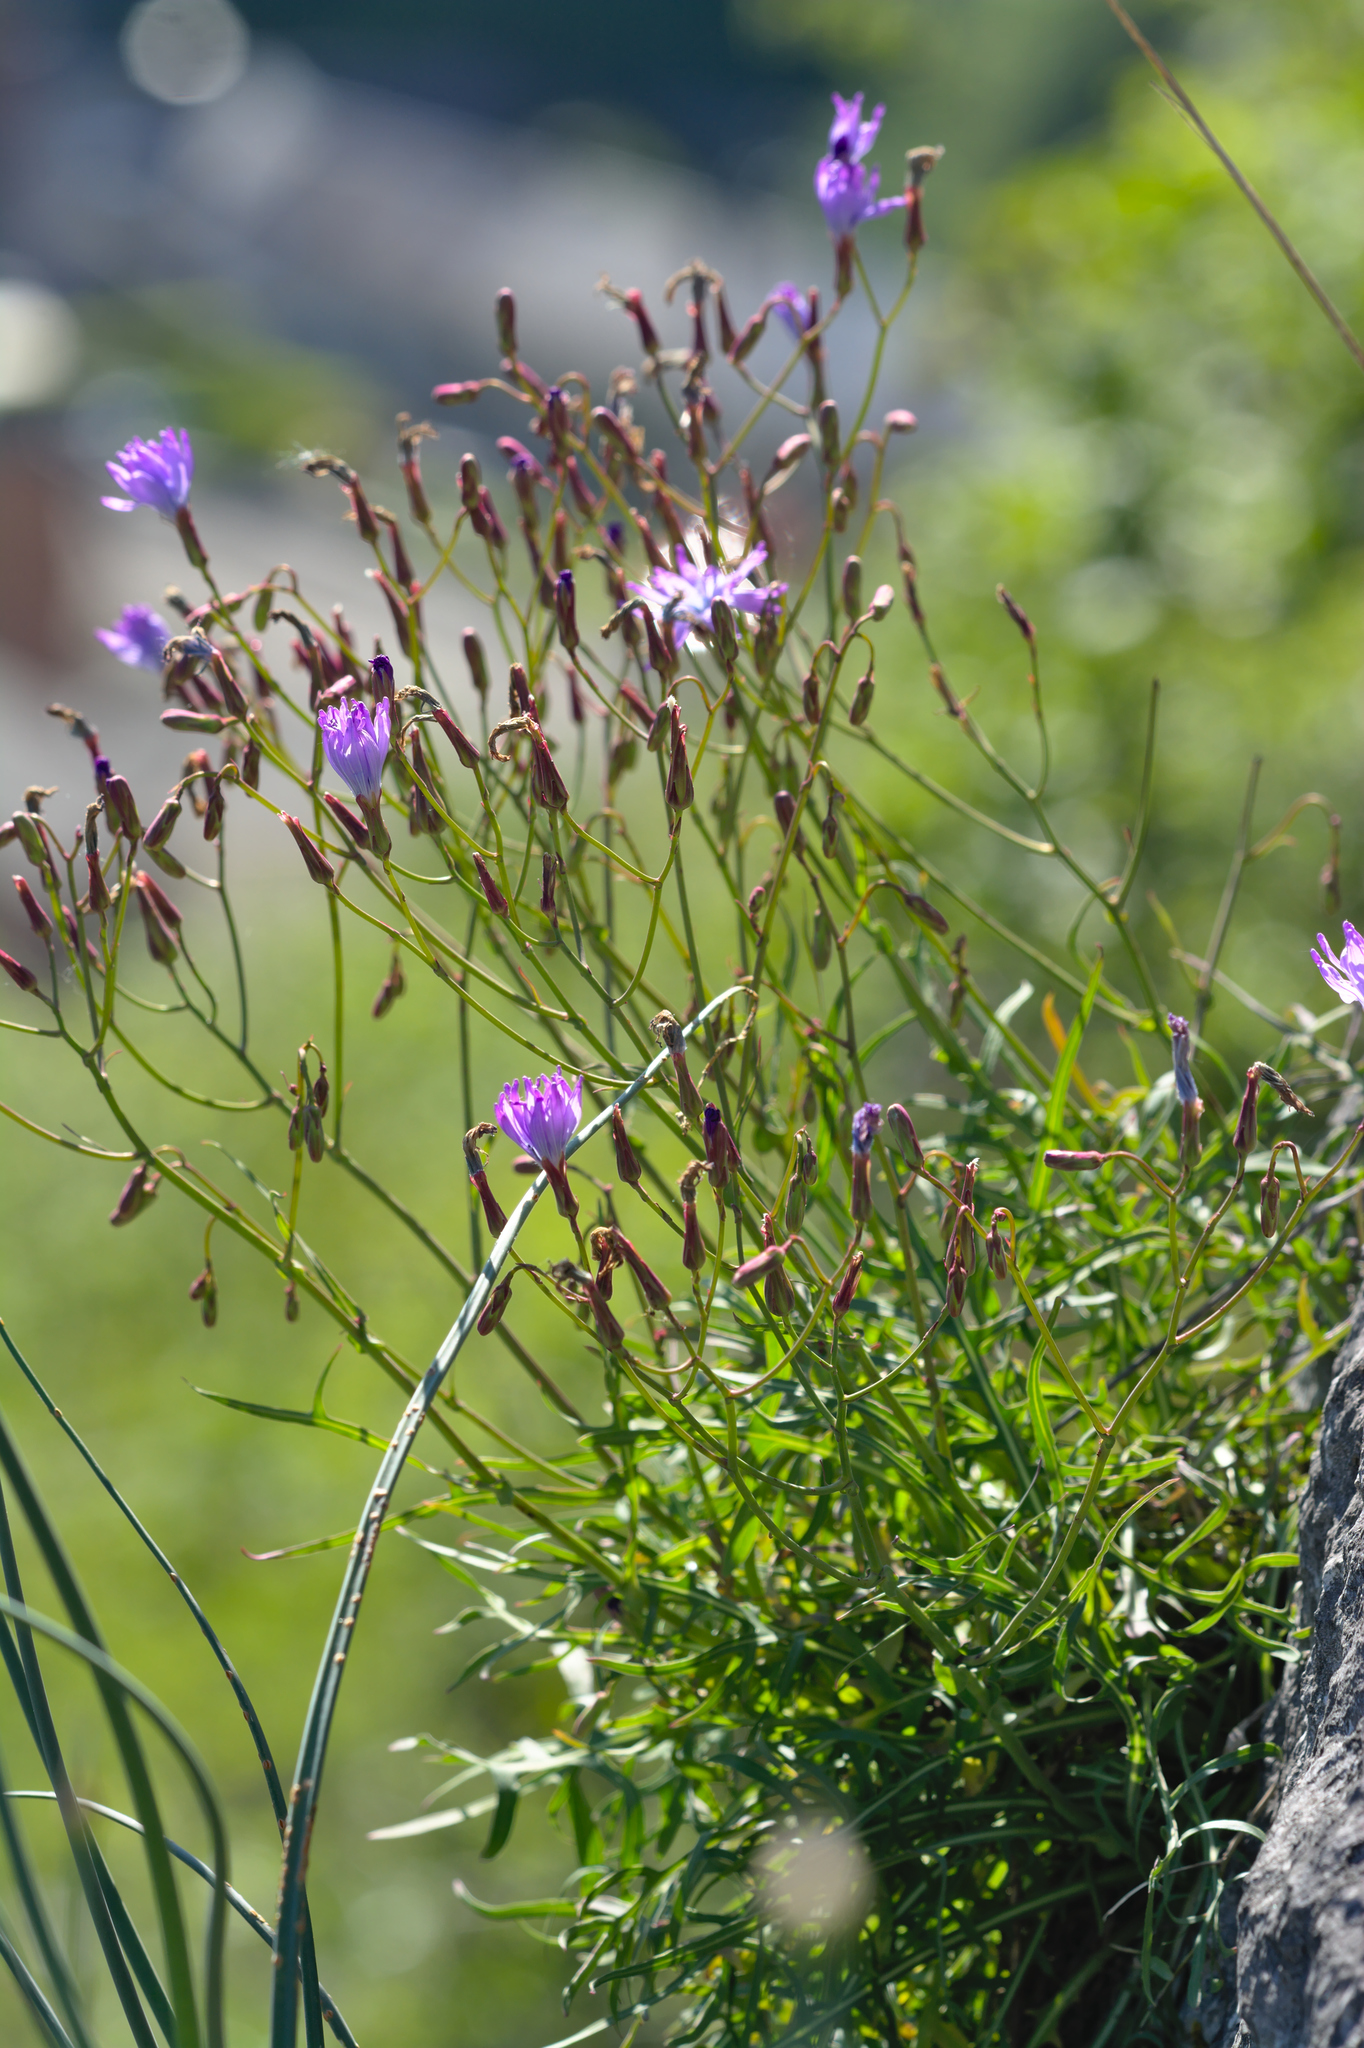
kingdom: Plantae
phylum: Tracheophyta
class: Magnoliopsida
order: Asterales
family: Asteraceae
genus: Lactuca
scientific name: Lactuca perennis
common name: Mountain lettuce
